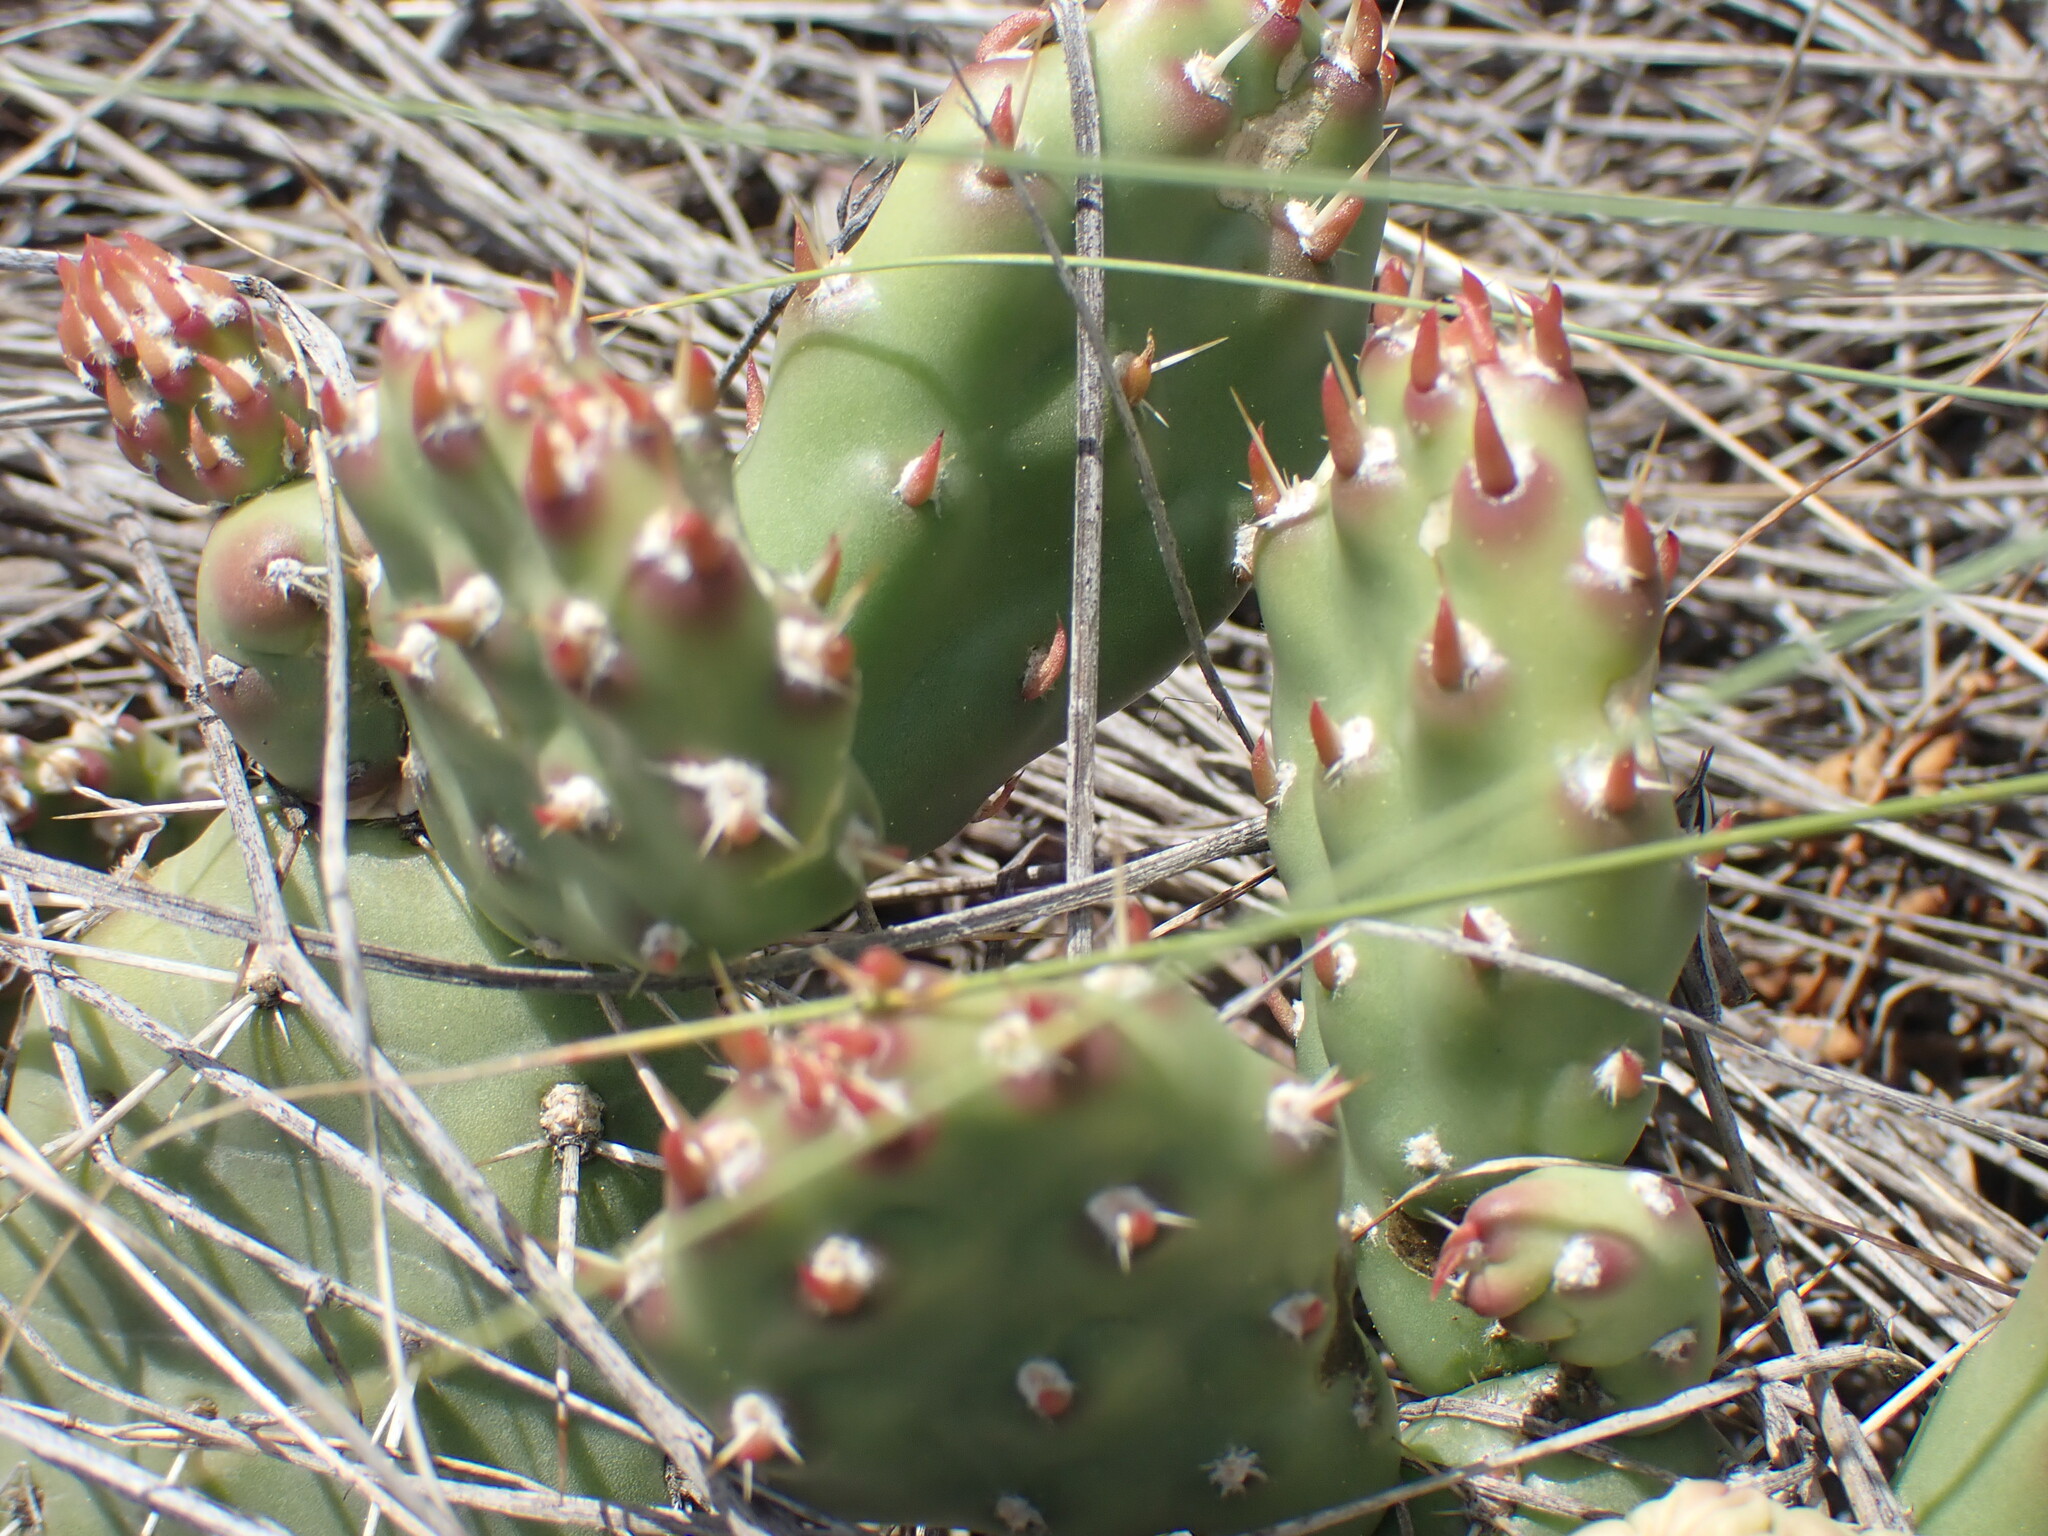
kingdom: Plantae
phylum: Tracheophyta
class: Magnoliopsida
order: Caryophyllales
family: Cactaceae
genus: Opuntia
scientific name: Opuntia fragilis
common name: Brittle cactus
